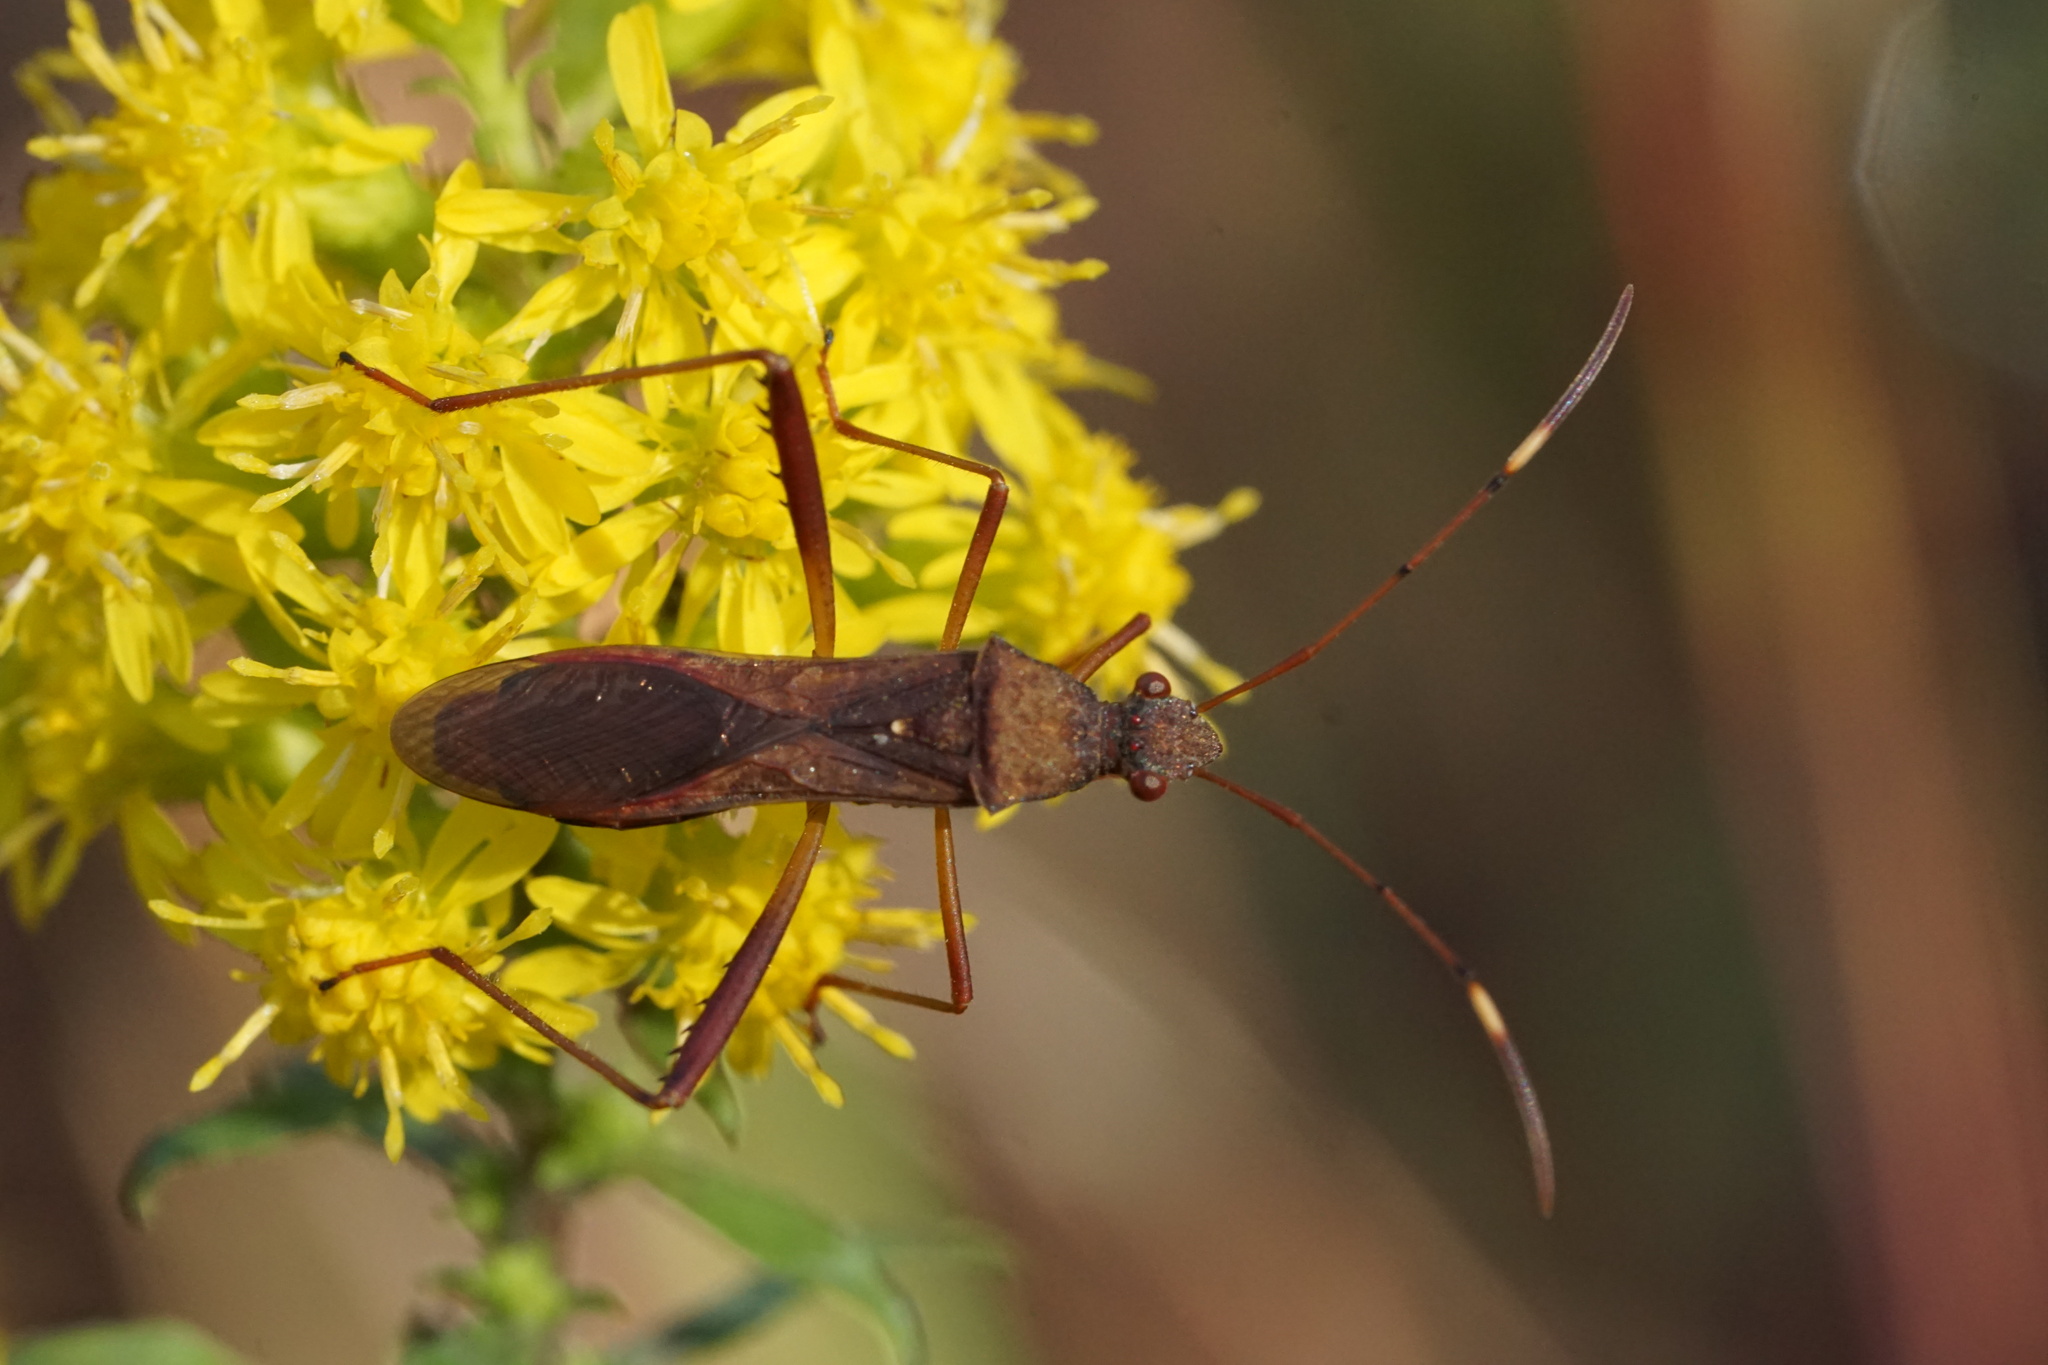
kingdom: Animalia
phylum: Arthropoda
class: Insecta
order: Hemiptera
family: Alydidae
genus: Megalotomus
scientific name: Megalotomus quinquespinosus
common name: Lupine bug
